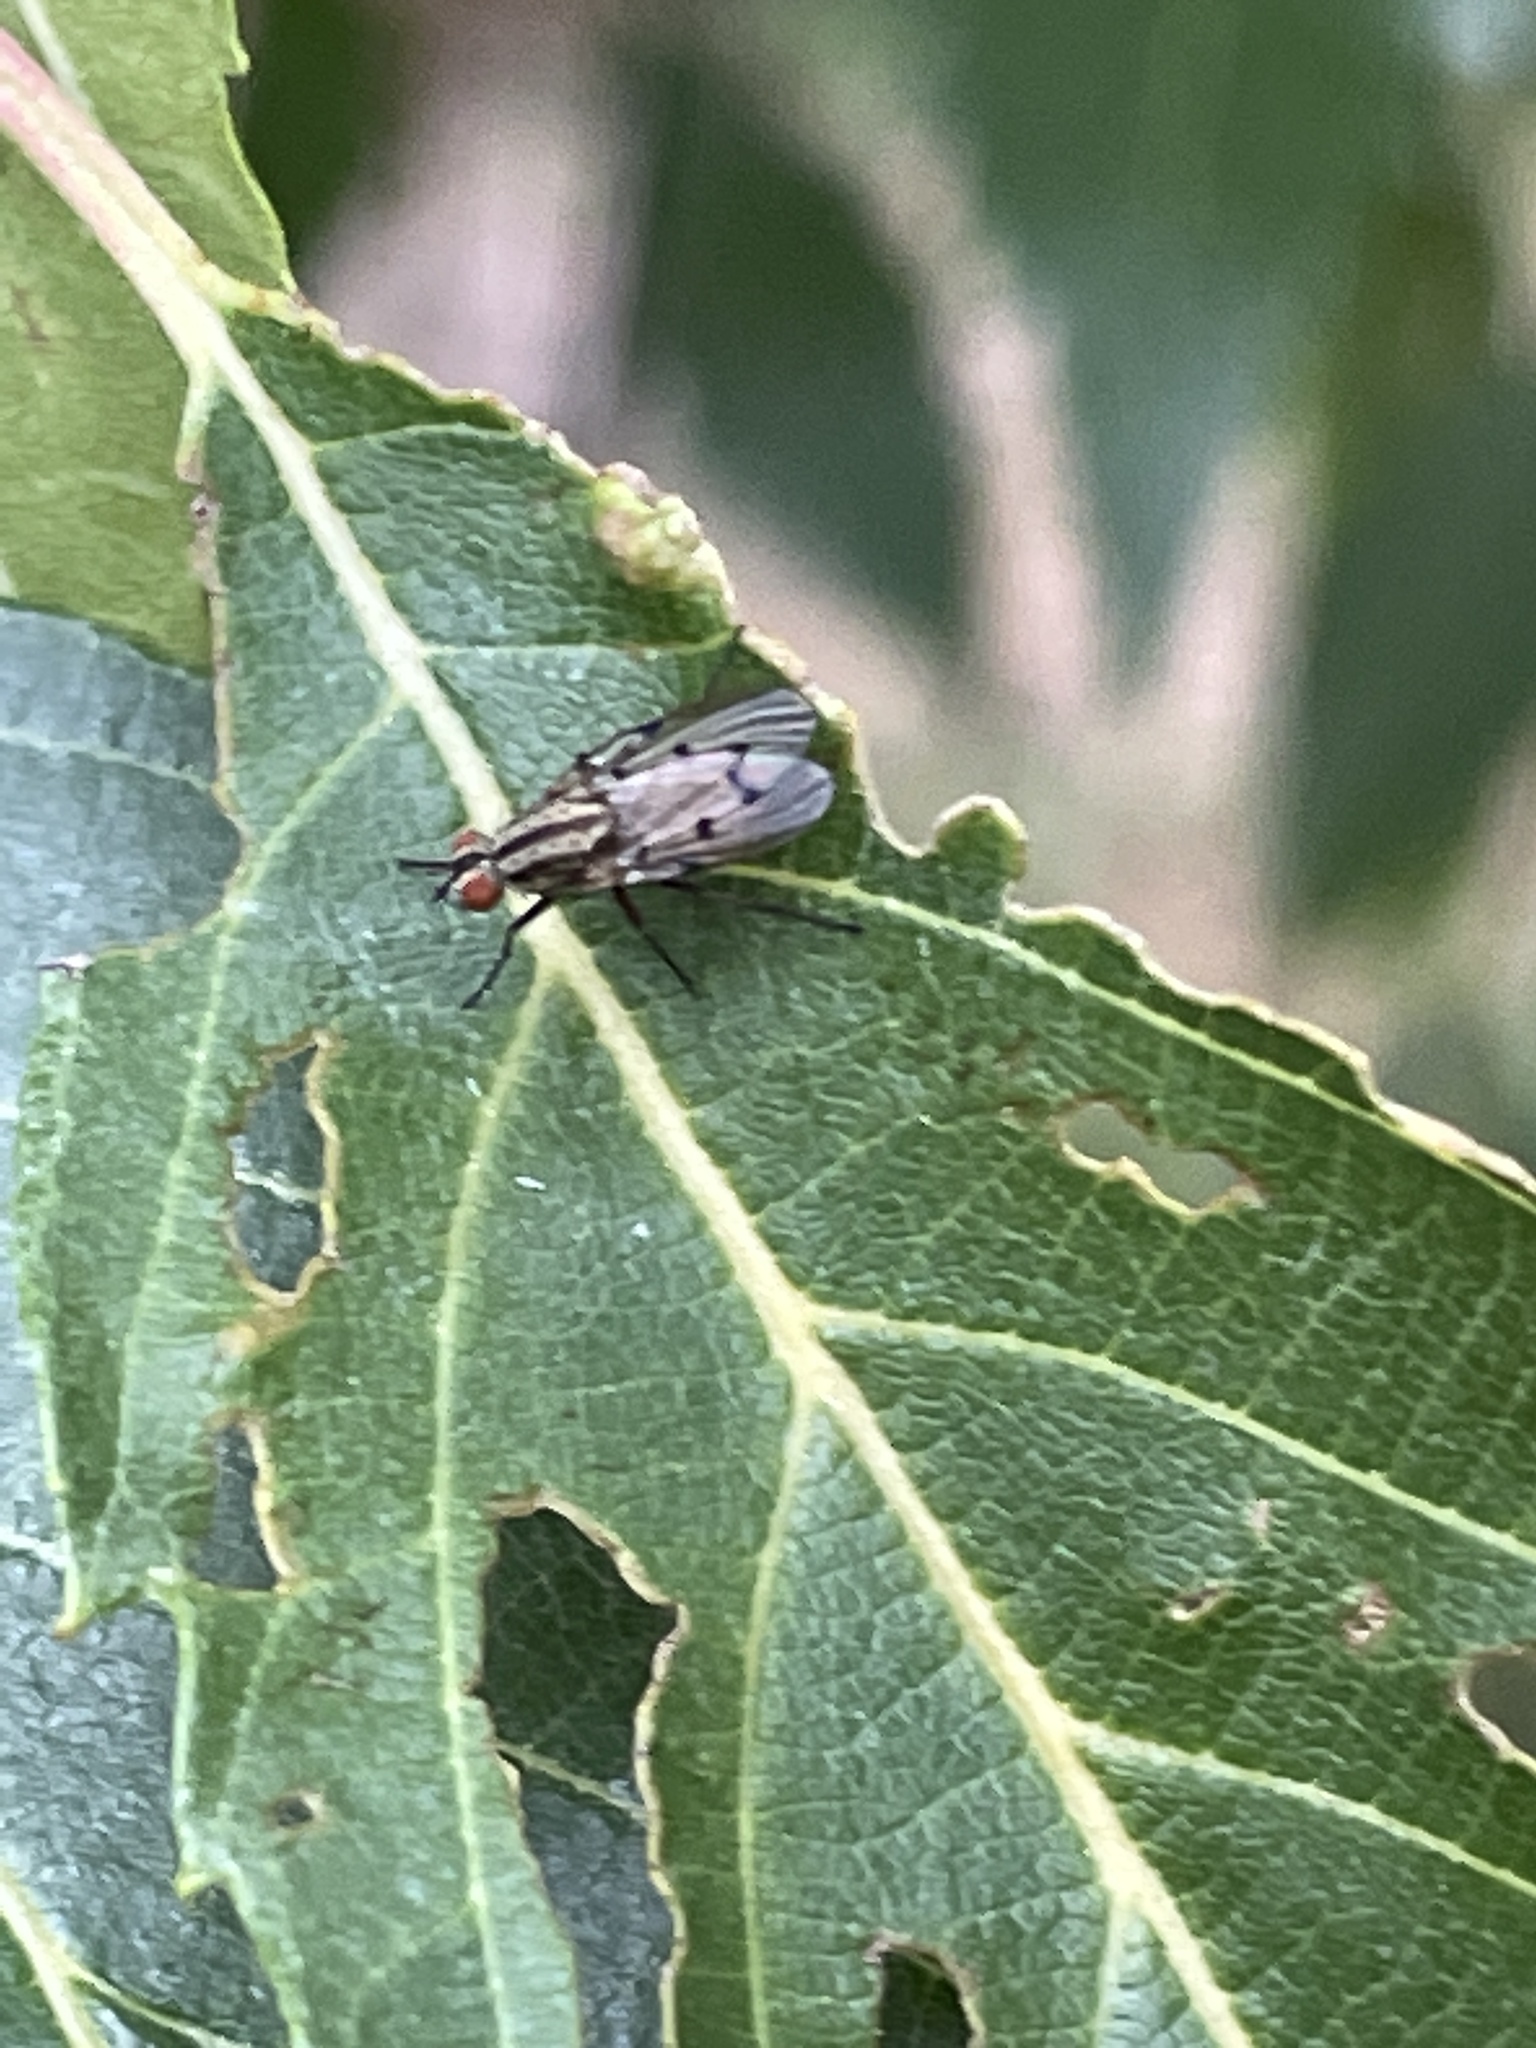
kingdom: Animalia
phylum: Arthropoda
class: Insecta
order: Diptera
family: Anthomyiidae
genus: Anthomyia
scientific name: Anthomyia punctipennis
